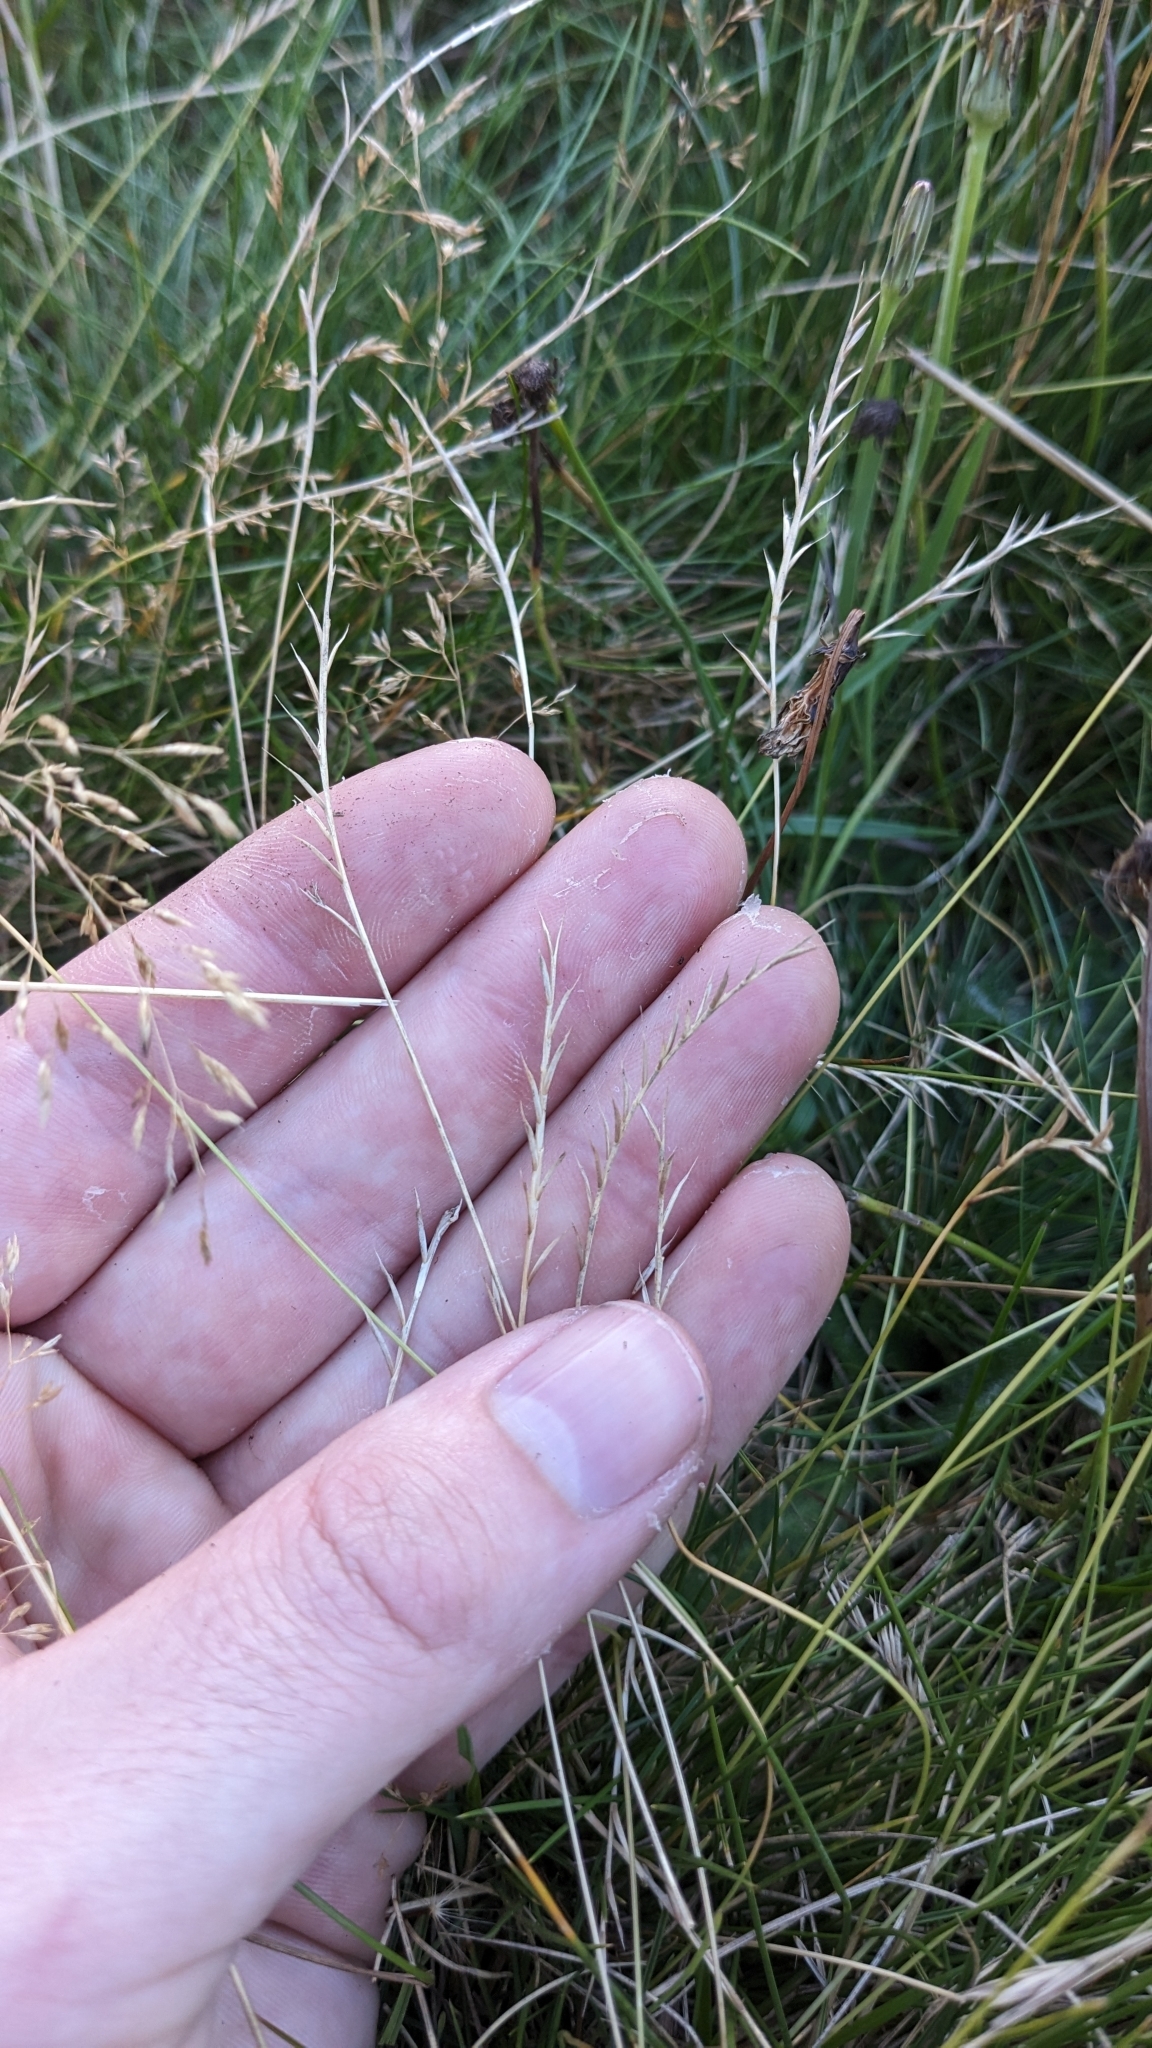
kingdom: Plantae
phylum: Tracheophyta
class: Liliopsida
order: Poales
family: Poaceae
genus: Nardus
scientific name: Nardus stricta
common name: Mat-grass
